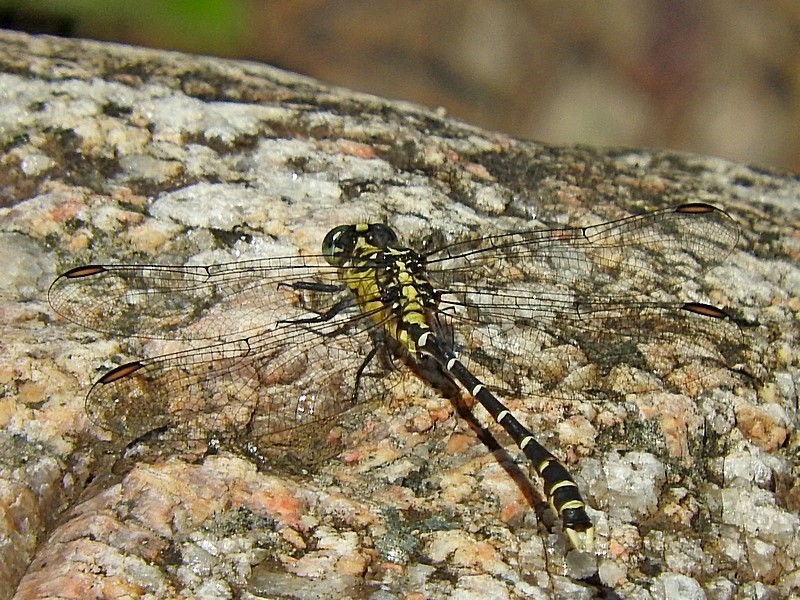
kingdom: Animalia
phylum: Arthropoda
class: Insecta
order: Odonata
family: Gomphidae
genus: Hemigomphus
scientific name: Hemigomphus gouldii
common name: Southern vicetail
